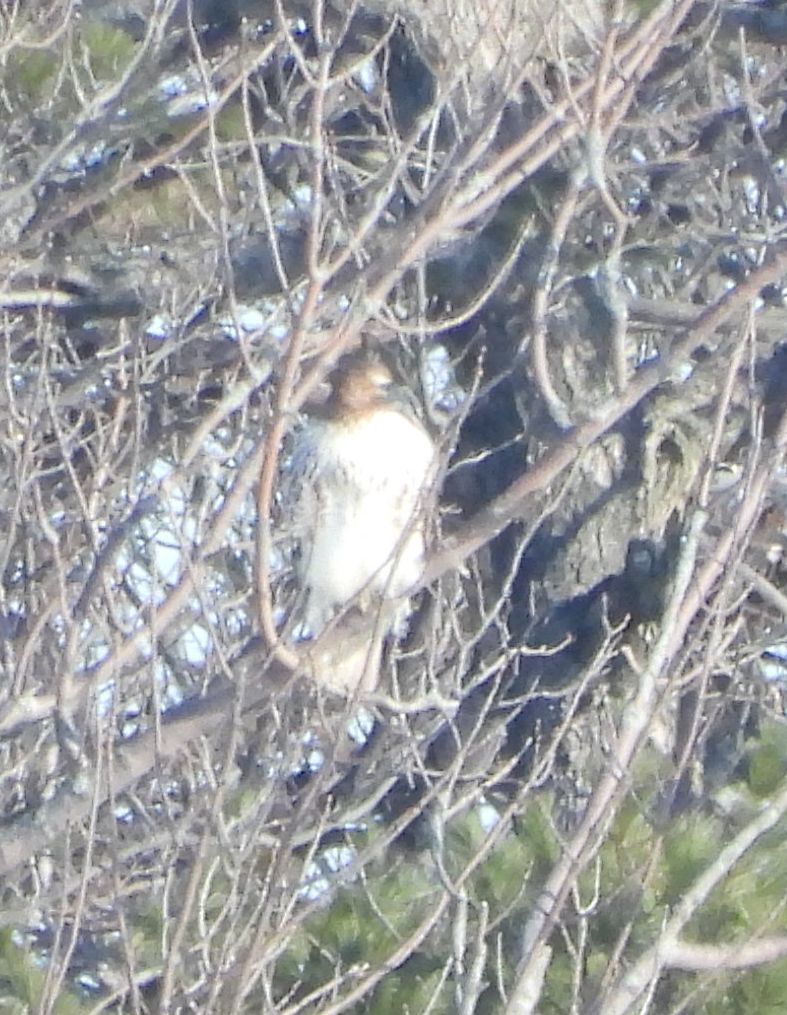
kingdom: Animalia
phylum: Chordata
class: Aves
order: Accipitriformes
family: Accipitridae
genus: Buteo
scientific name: Buteo jamaicensis
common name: Red-tailed hawk
